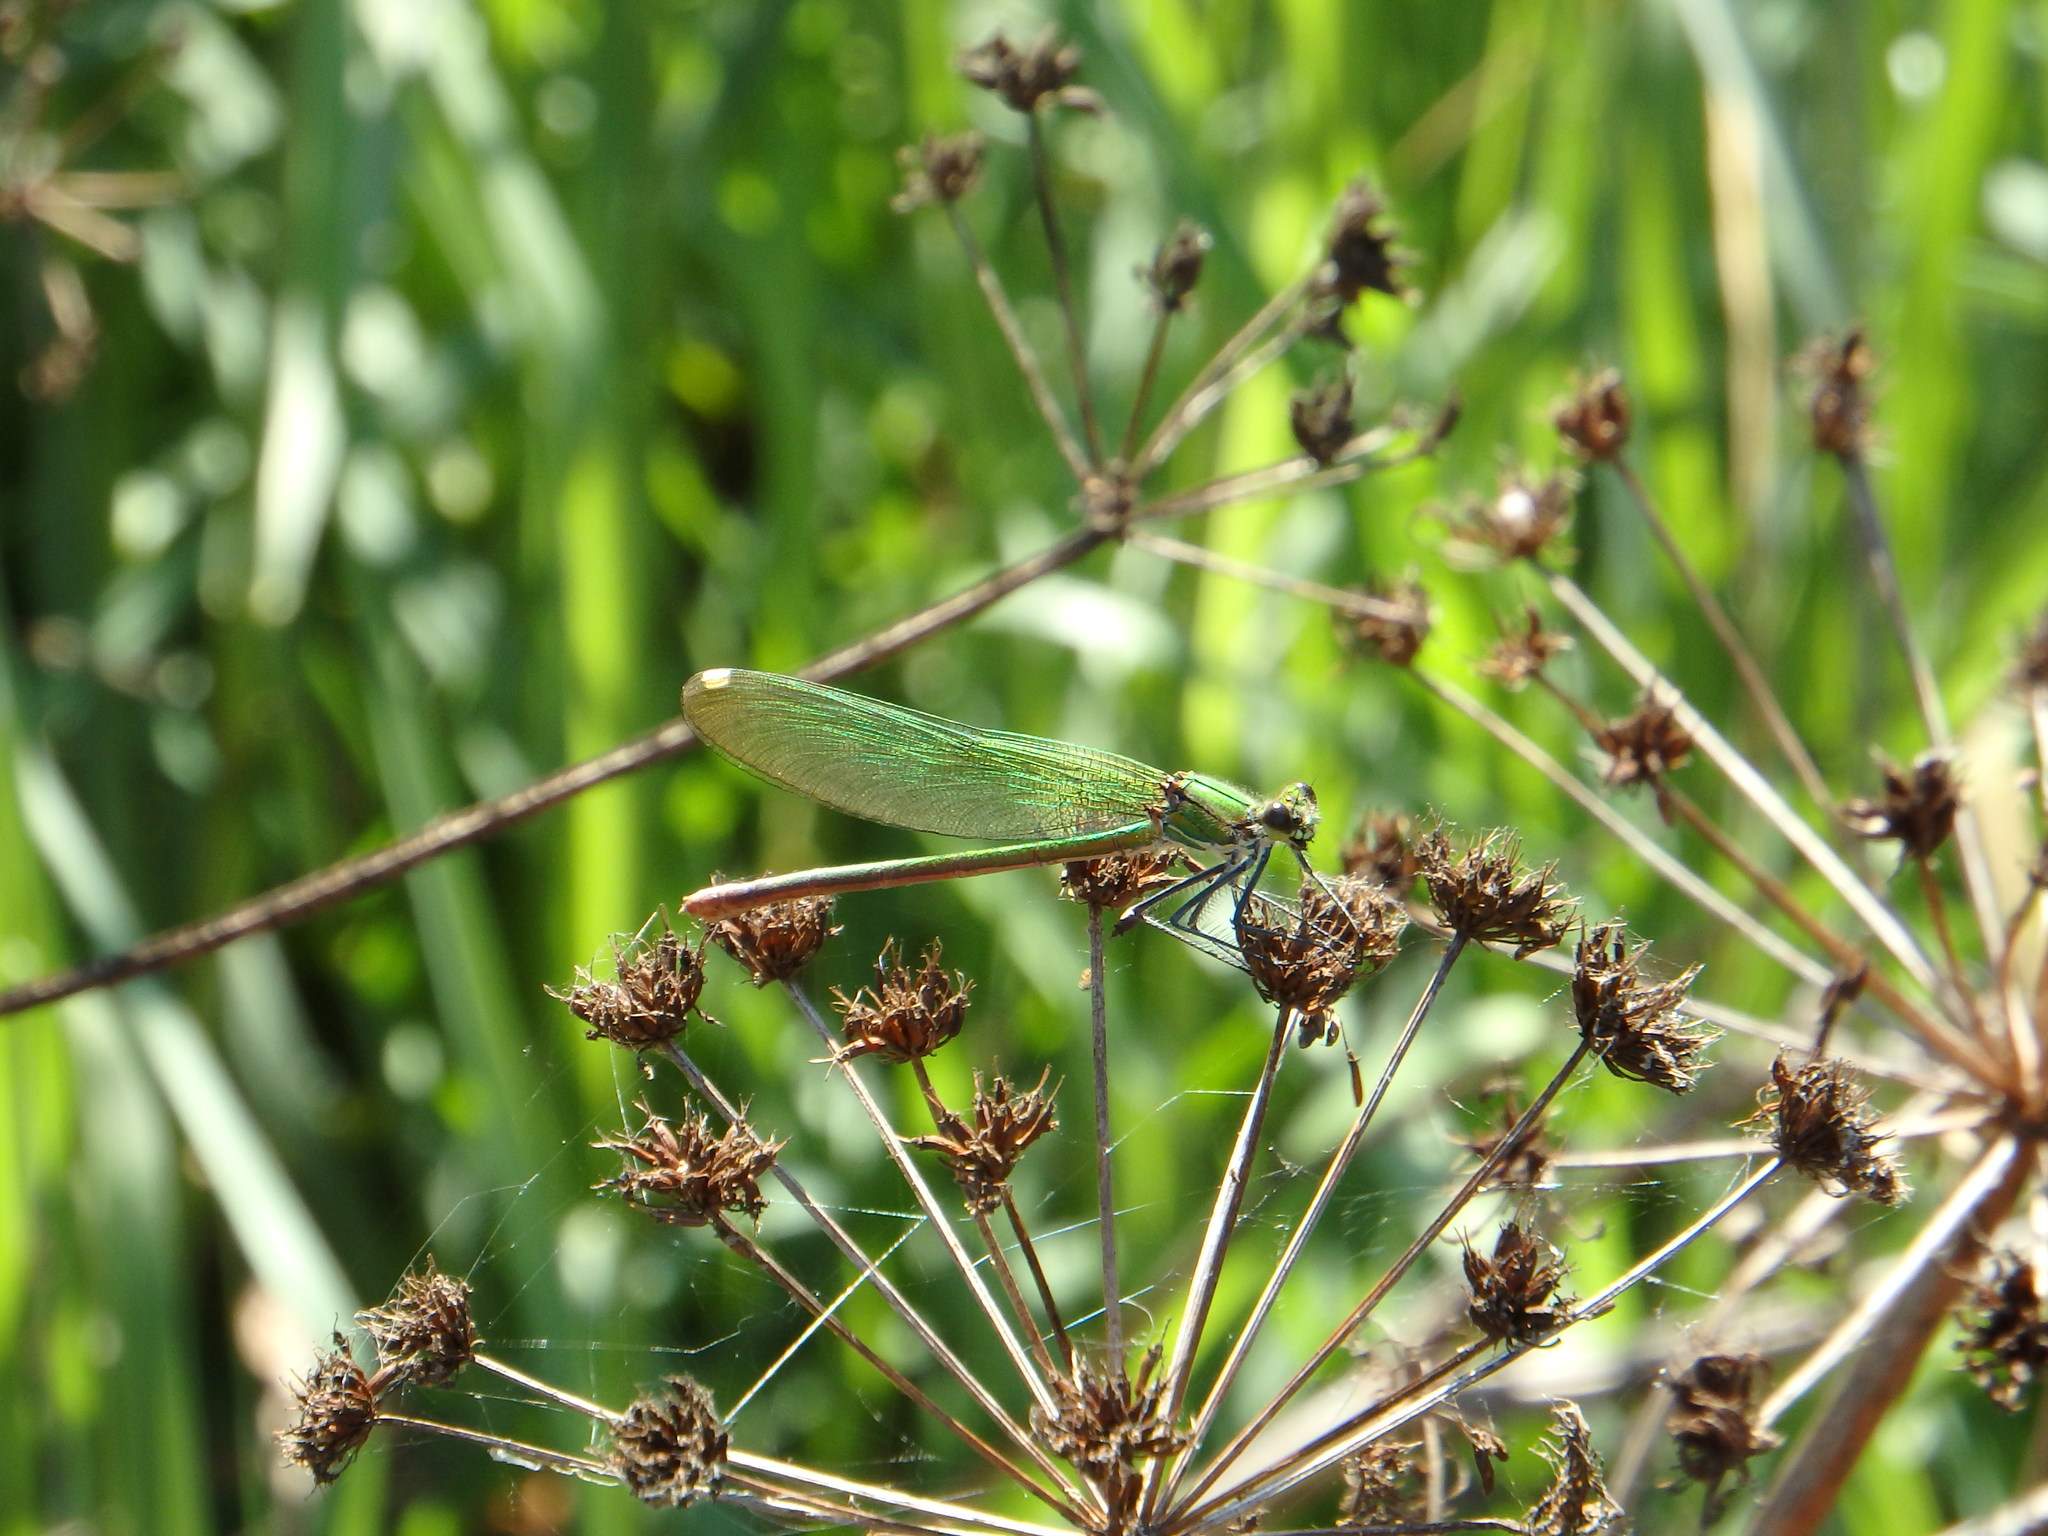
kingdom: Animalia
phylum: Arthropoda
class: Insecta
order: Odonata
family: Calopterygidae
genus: Calopteryx
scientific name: Calopteryx xanthostoma
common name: Western demoiselle
